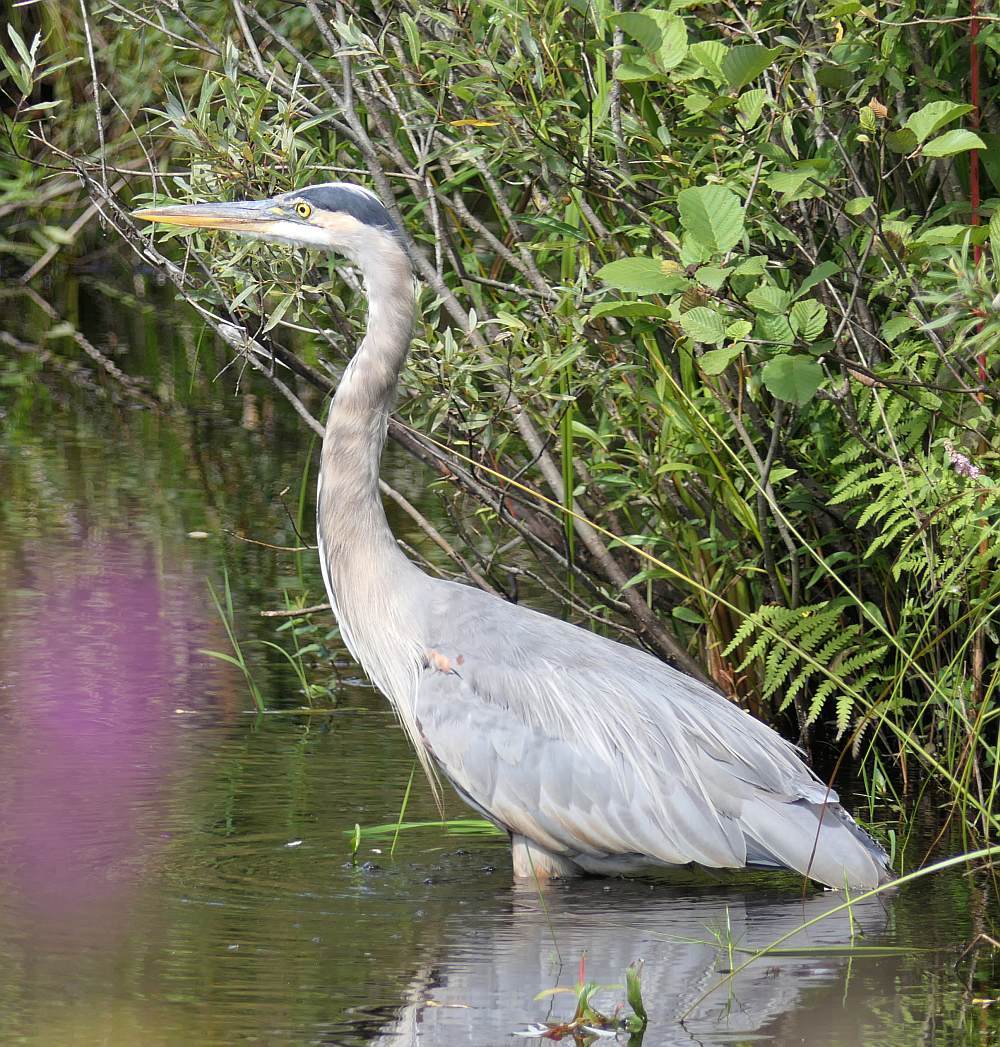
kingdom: Animalia
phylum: Chordata
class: Aves
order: Pelecaniformes
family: Ardeidae
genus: Ardea
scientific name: Ardea herodias
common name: Great blue heron
